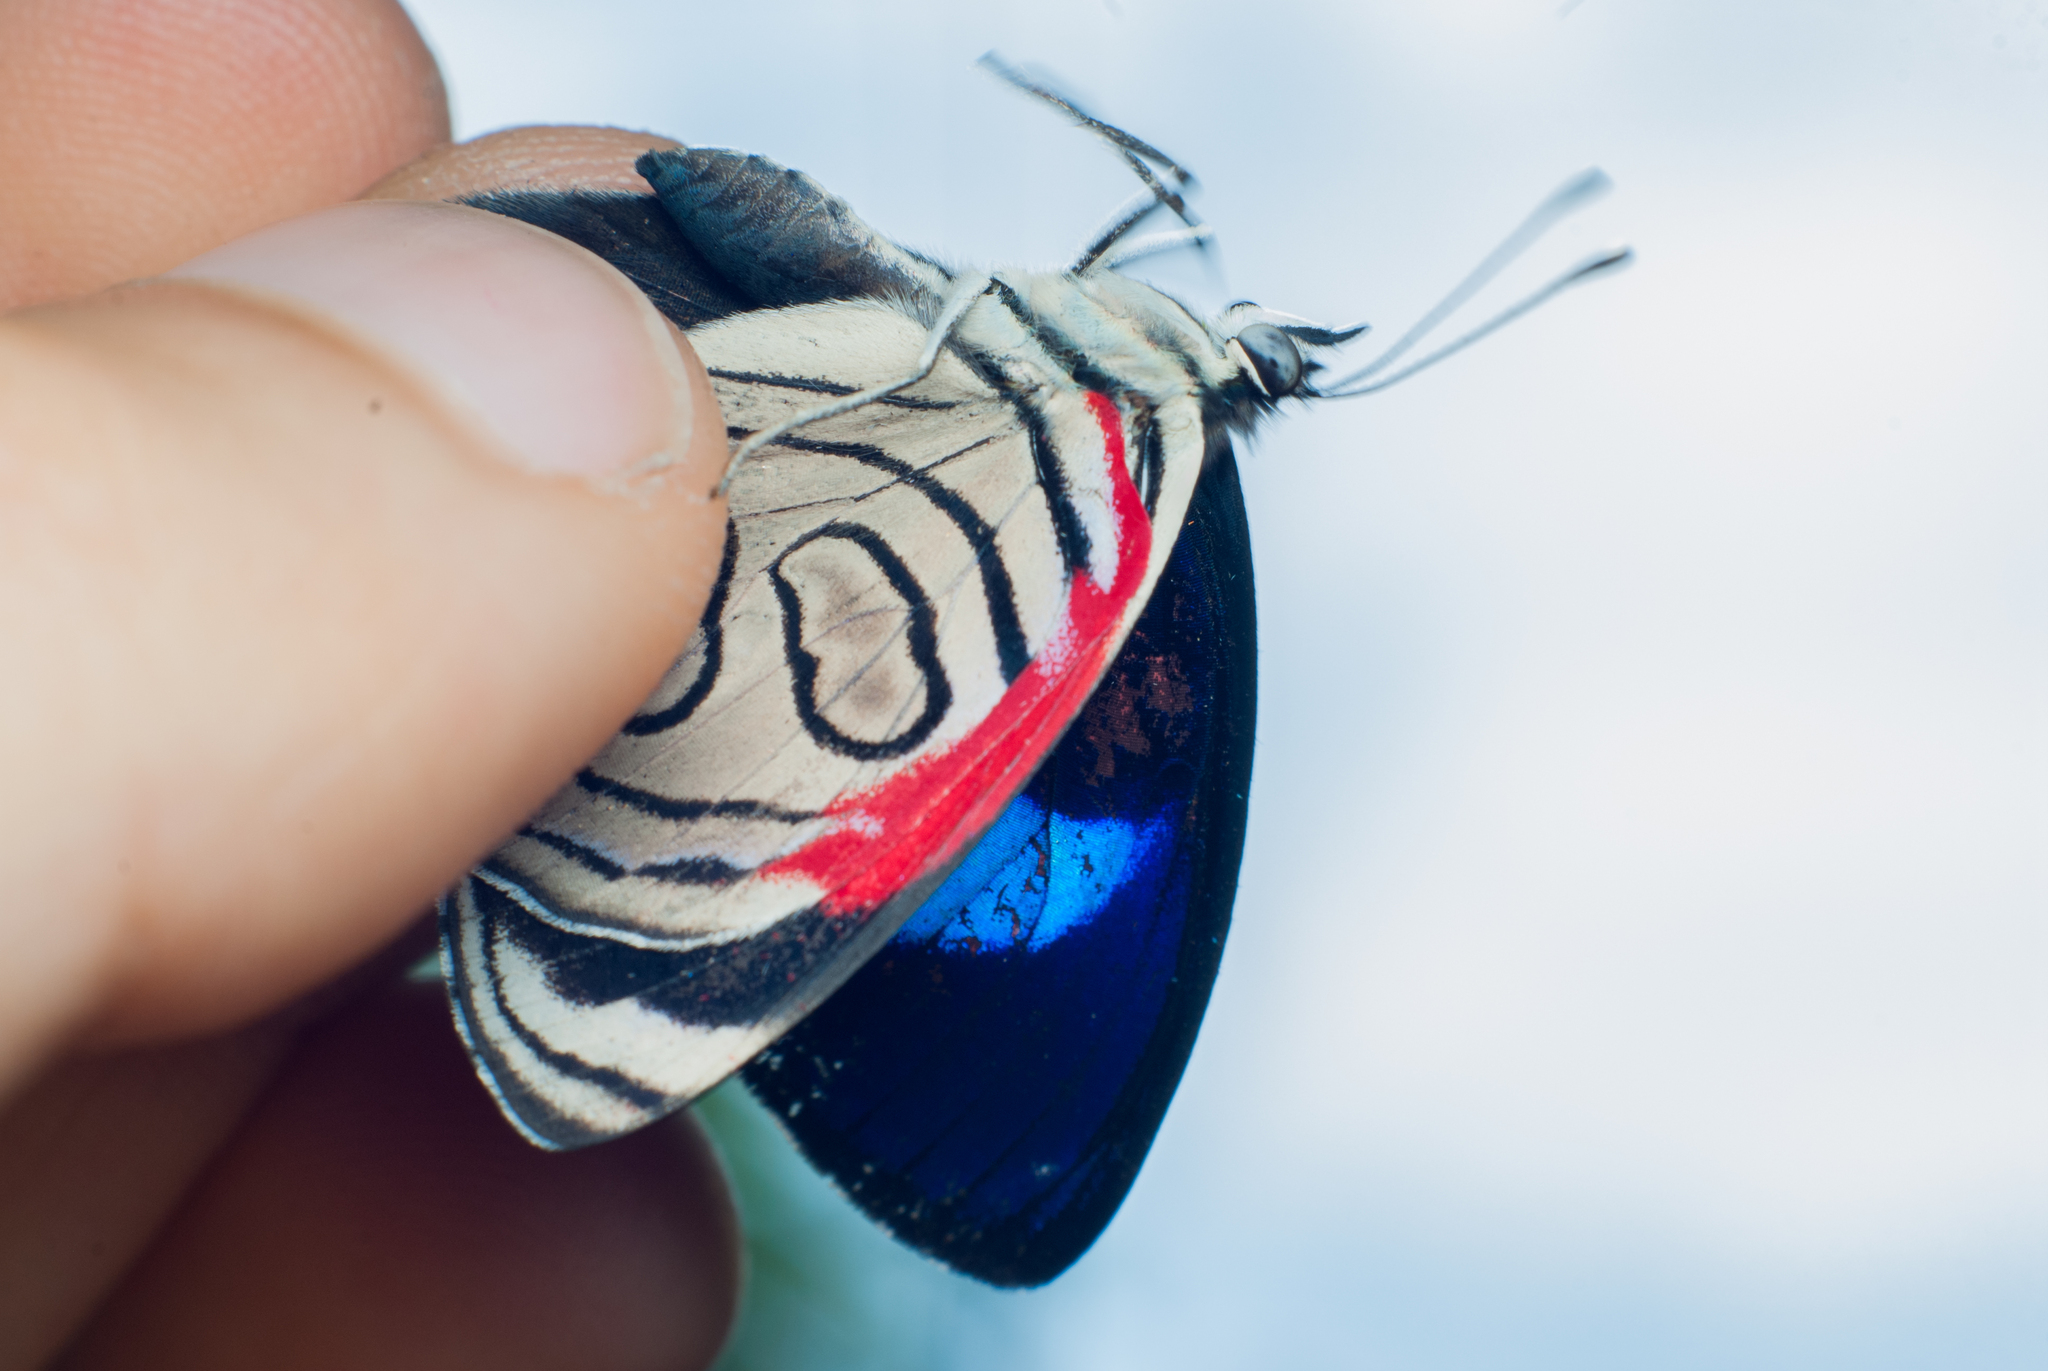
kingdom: Animalia
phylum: Arthropoda
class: Insecta
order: Lepidoptera
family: Nymphalidae
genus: Diaethria
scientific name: Diaethria gabaza
